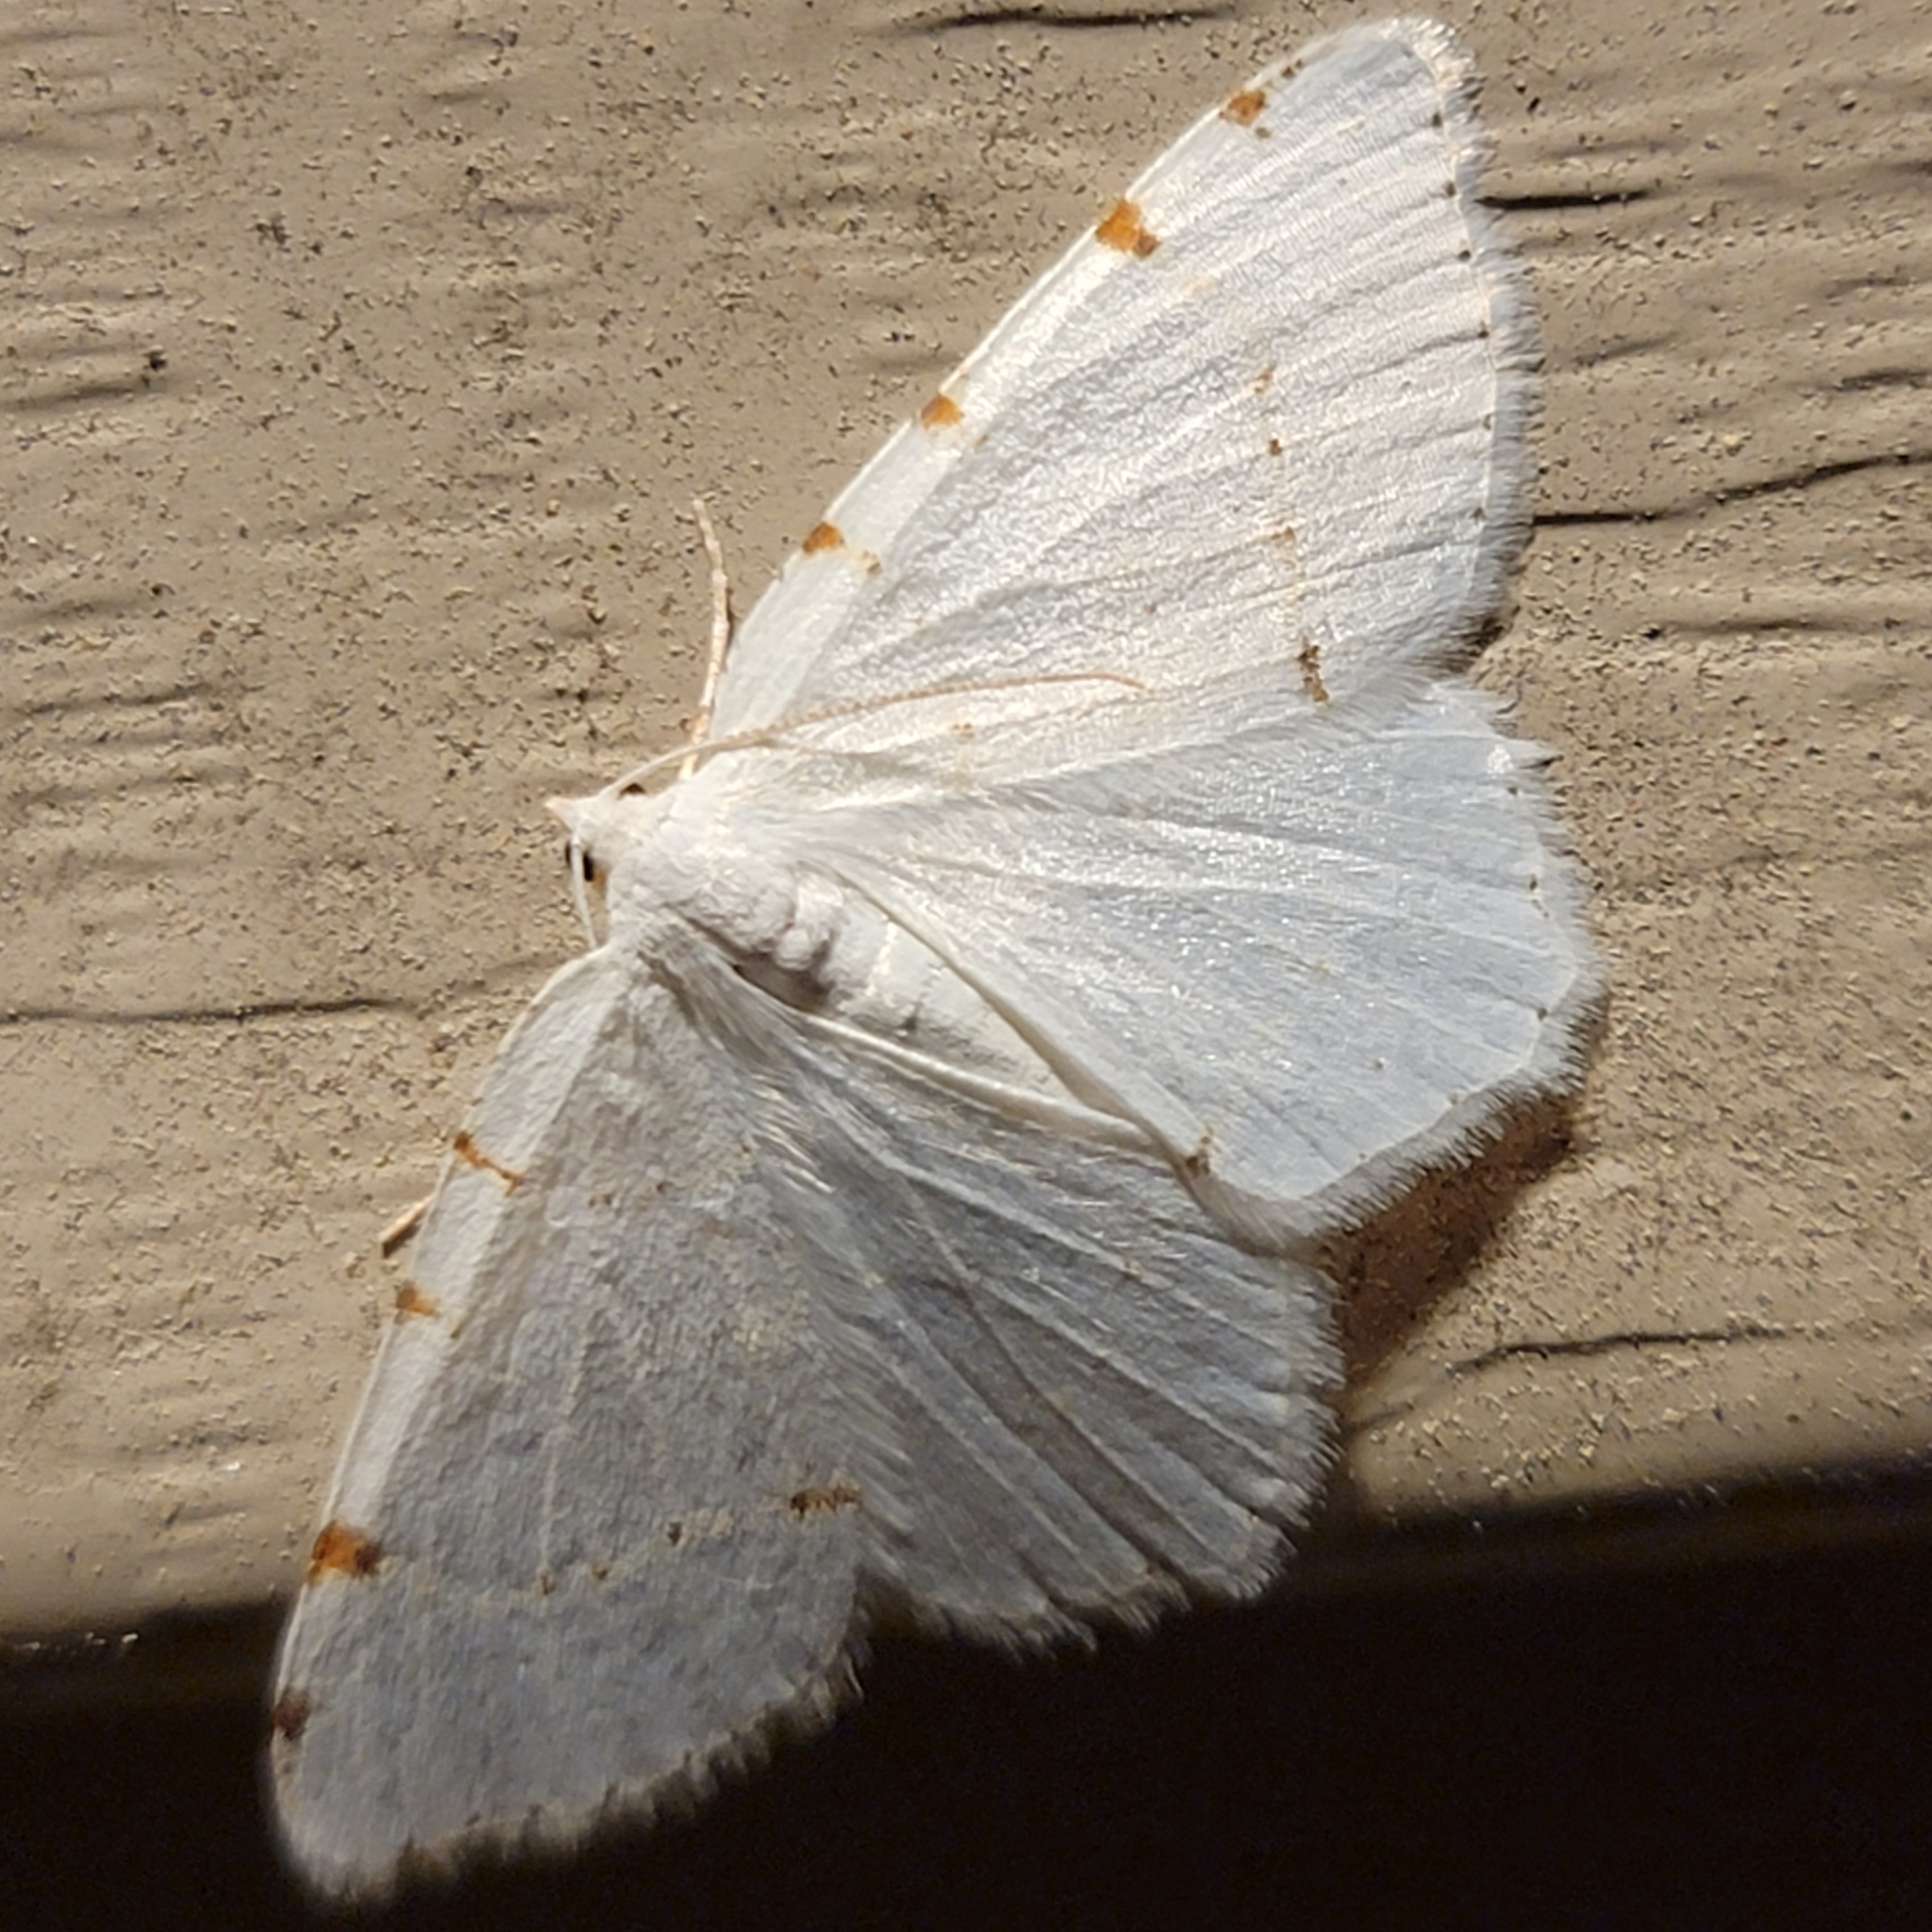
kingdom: Animalia
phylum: Arthropoda
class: Insecta
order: Lepidoptera
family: Geometridae
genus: Macaria
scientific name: Macaria pustularia
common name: Lesser maple spanworm moth
